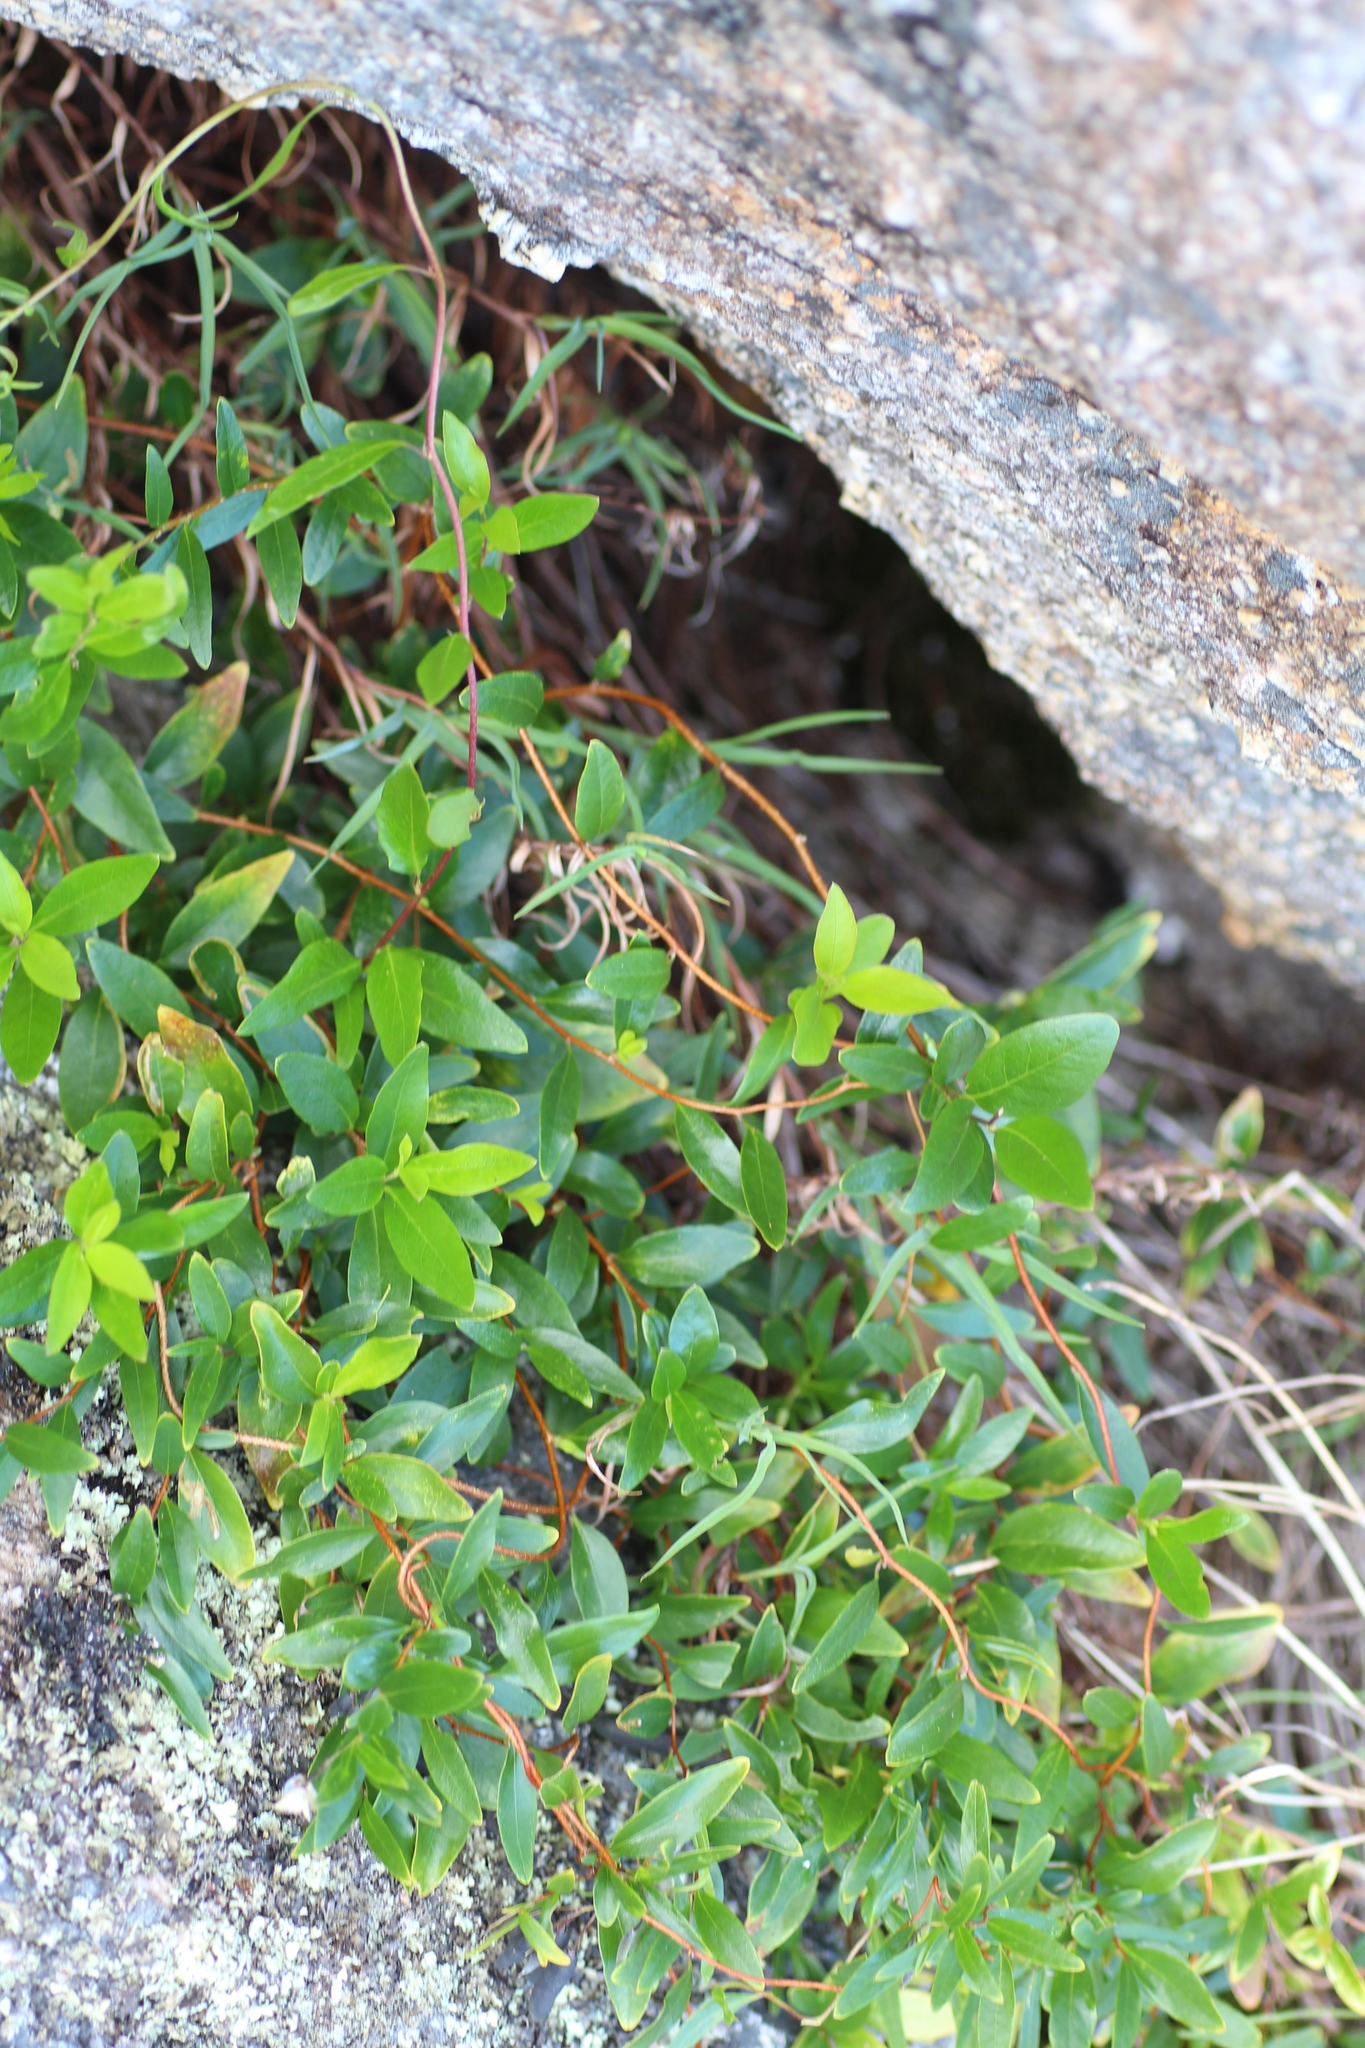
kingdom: Plantae
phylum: Tracheophyta
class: Magnoliopsida
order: Apiales
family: Pittosporaceae
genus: Billardiera
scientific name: Billardiera fusiformis
